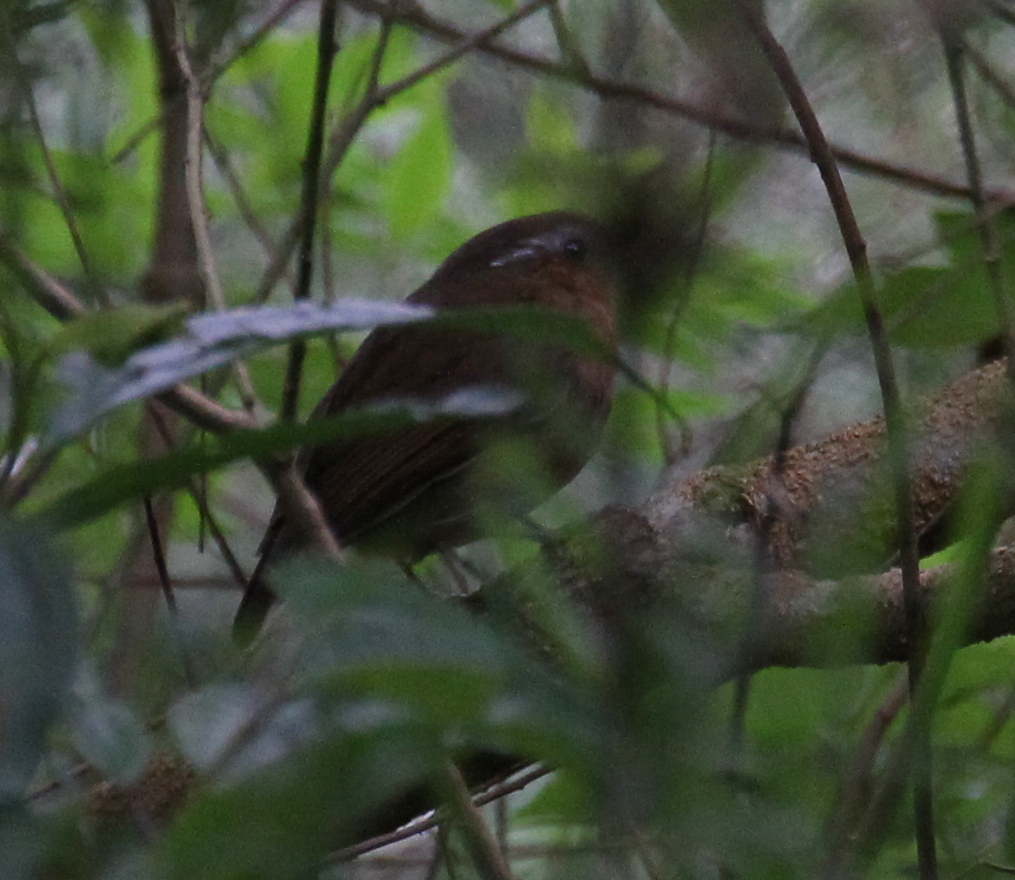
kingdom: Animalia
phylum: Chordata
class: Aves
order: Passeriformes
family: Conopophagidae
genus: Conopophaga
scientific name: Conopophaga lineata
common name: Rufous gnateater
